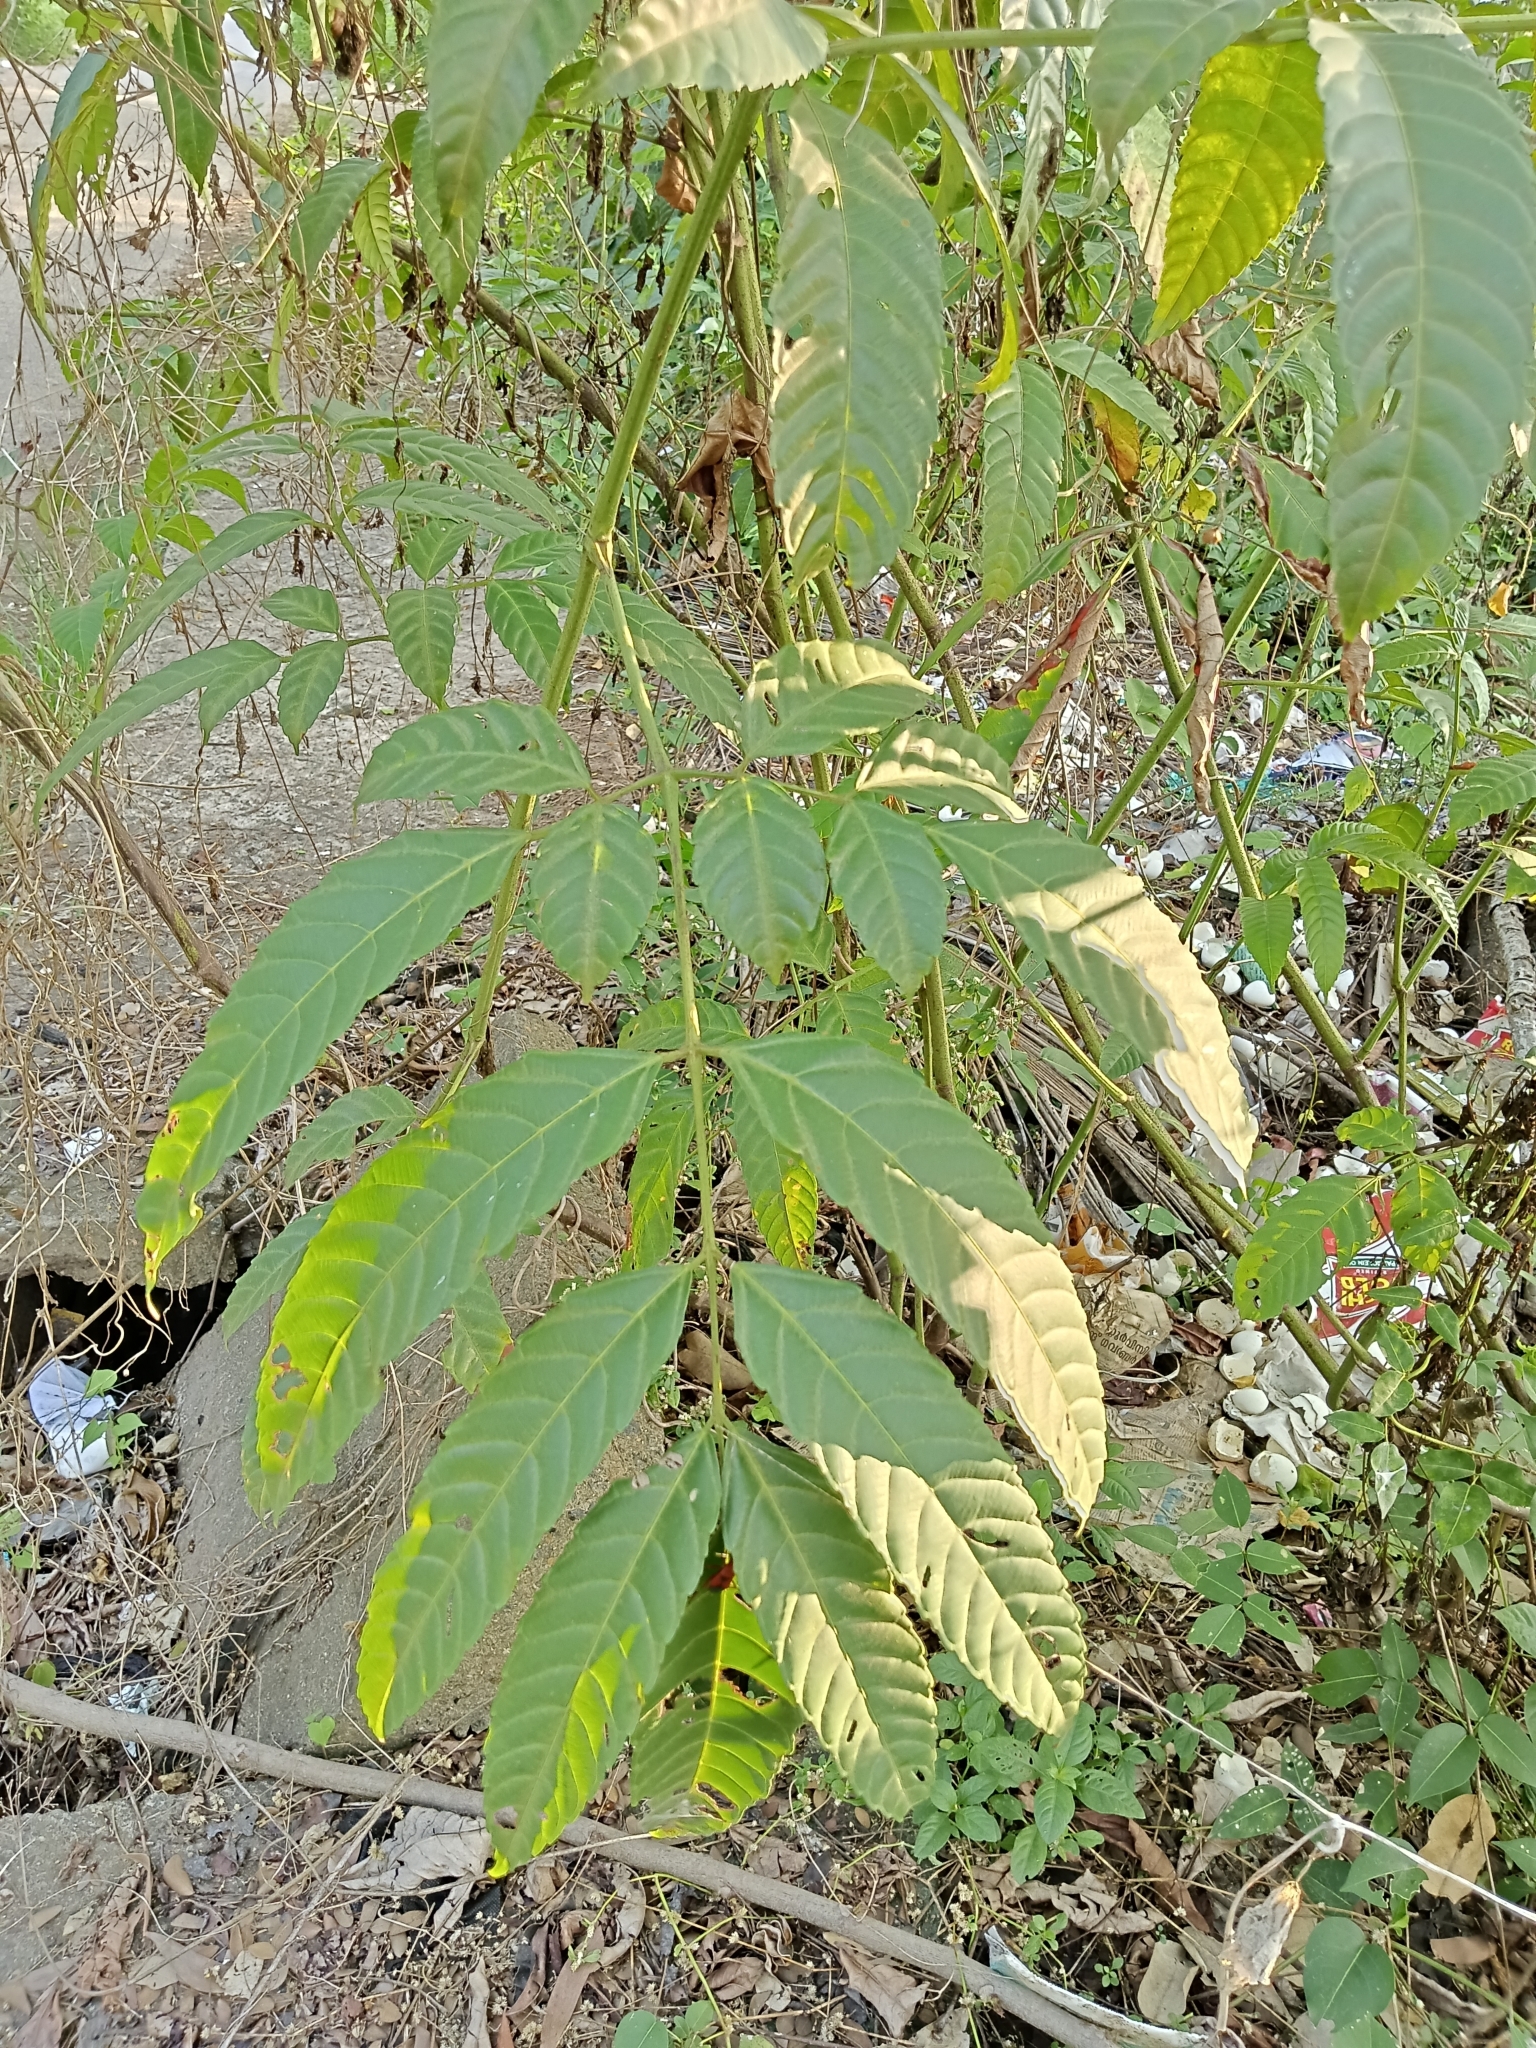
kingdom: Plantae
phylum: Tracheophyta
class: Magnoliopsida
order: Vitales
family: Vitaceae
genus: Leea
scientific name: Leea indica
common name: Bandicoot-berry
